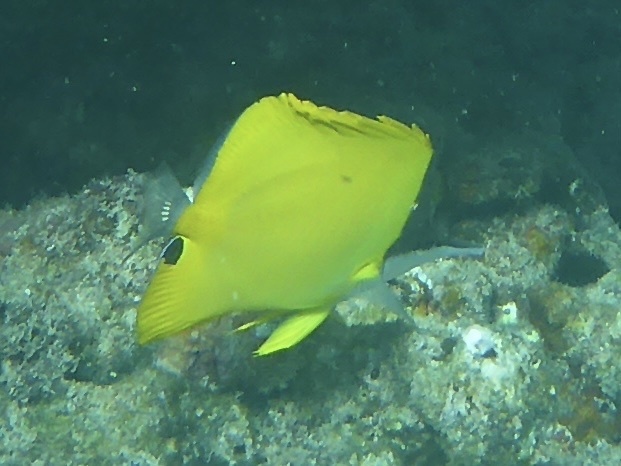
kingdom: Animalia
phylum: Chordata
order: Perciformes
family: Chaetodontidae
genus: Forcipiger
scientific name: Forcipiger flavissimus
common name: Forcepsfish
